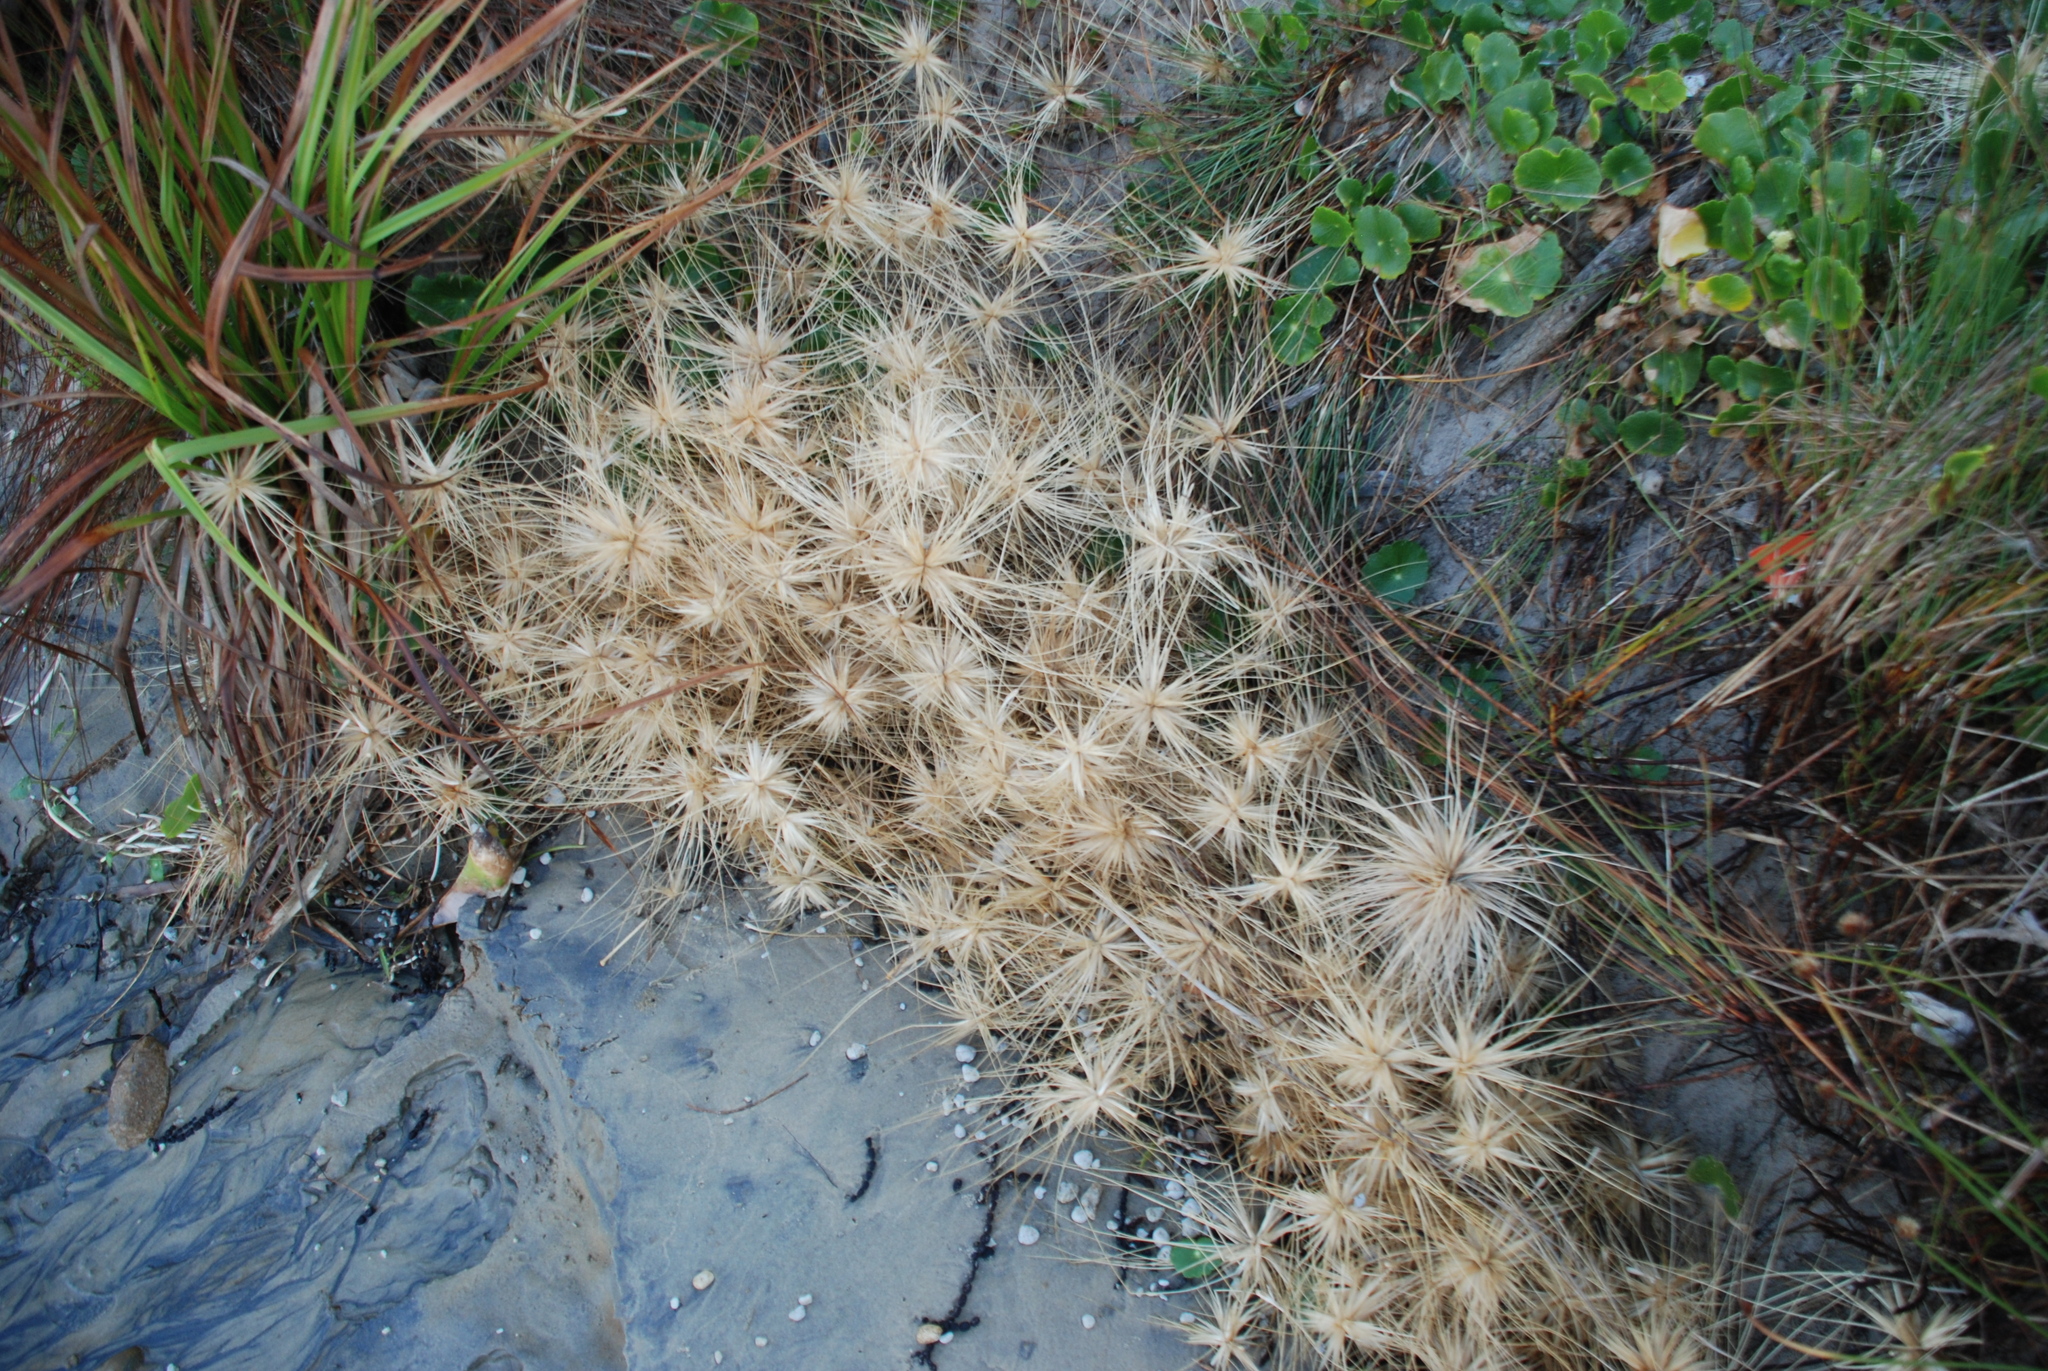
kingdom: Plantae
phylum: Tracheophyta
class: Liliopsida
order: Poales
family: Poaceae
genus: Spinifex
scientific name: Spinifex sericeus
